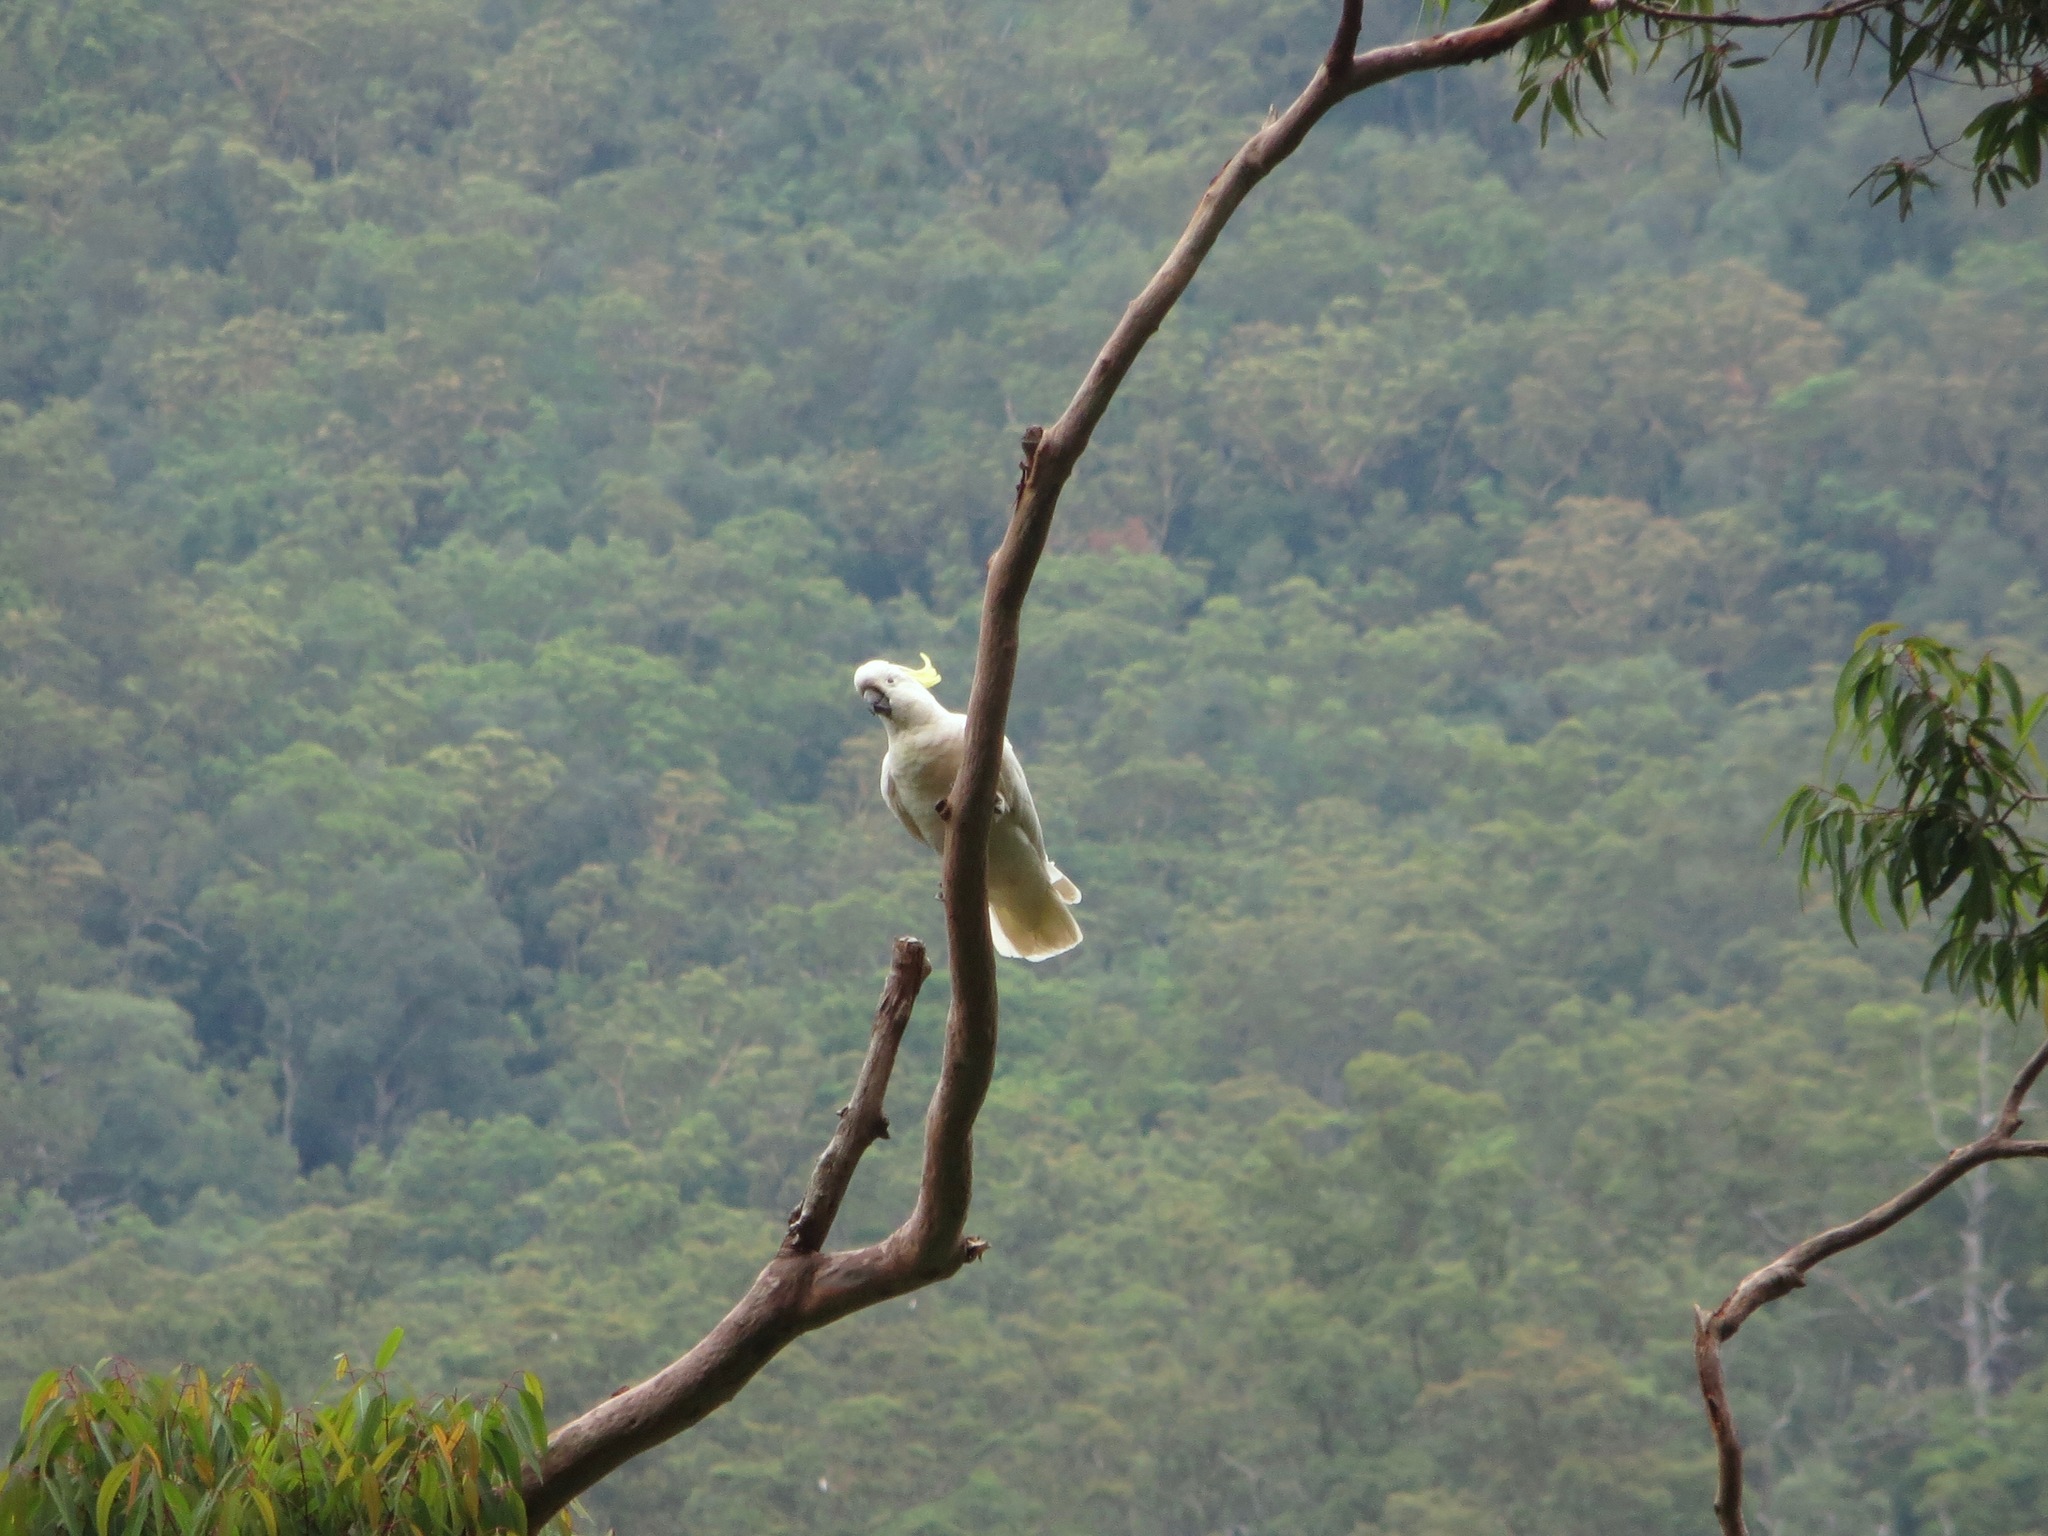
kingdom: Animalia
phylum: Chordata
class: Aves
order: Psittaciformes
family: Psittacidae
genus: Cacatua
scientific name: Cacatua galerita
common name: Sulphur-crested cockatoo
